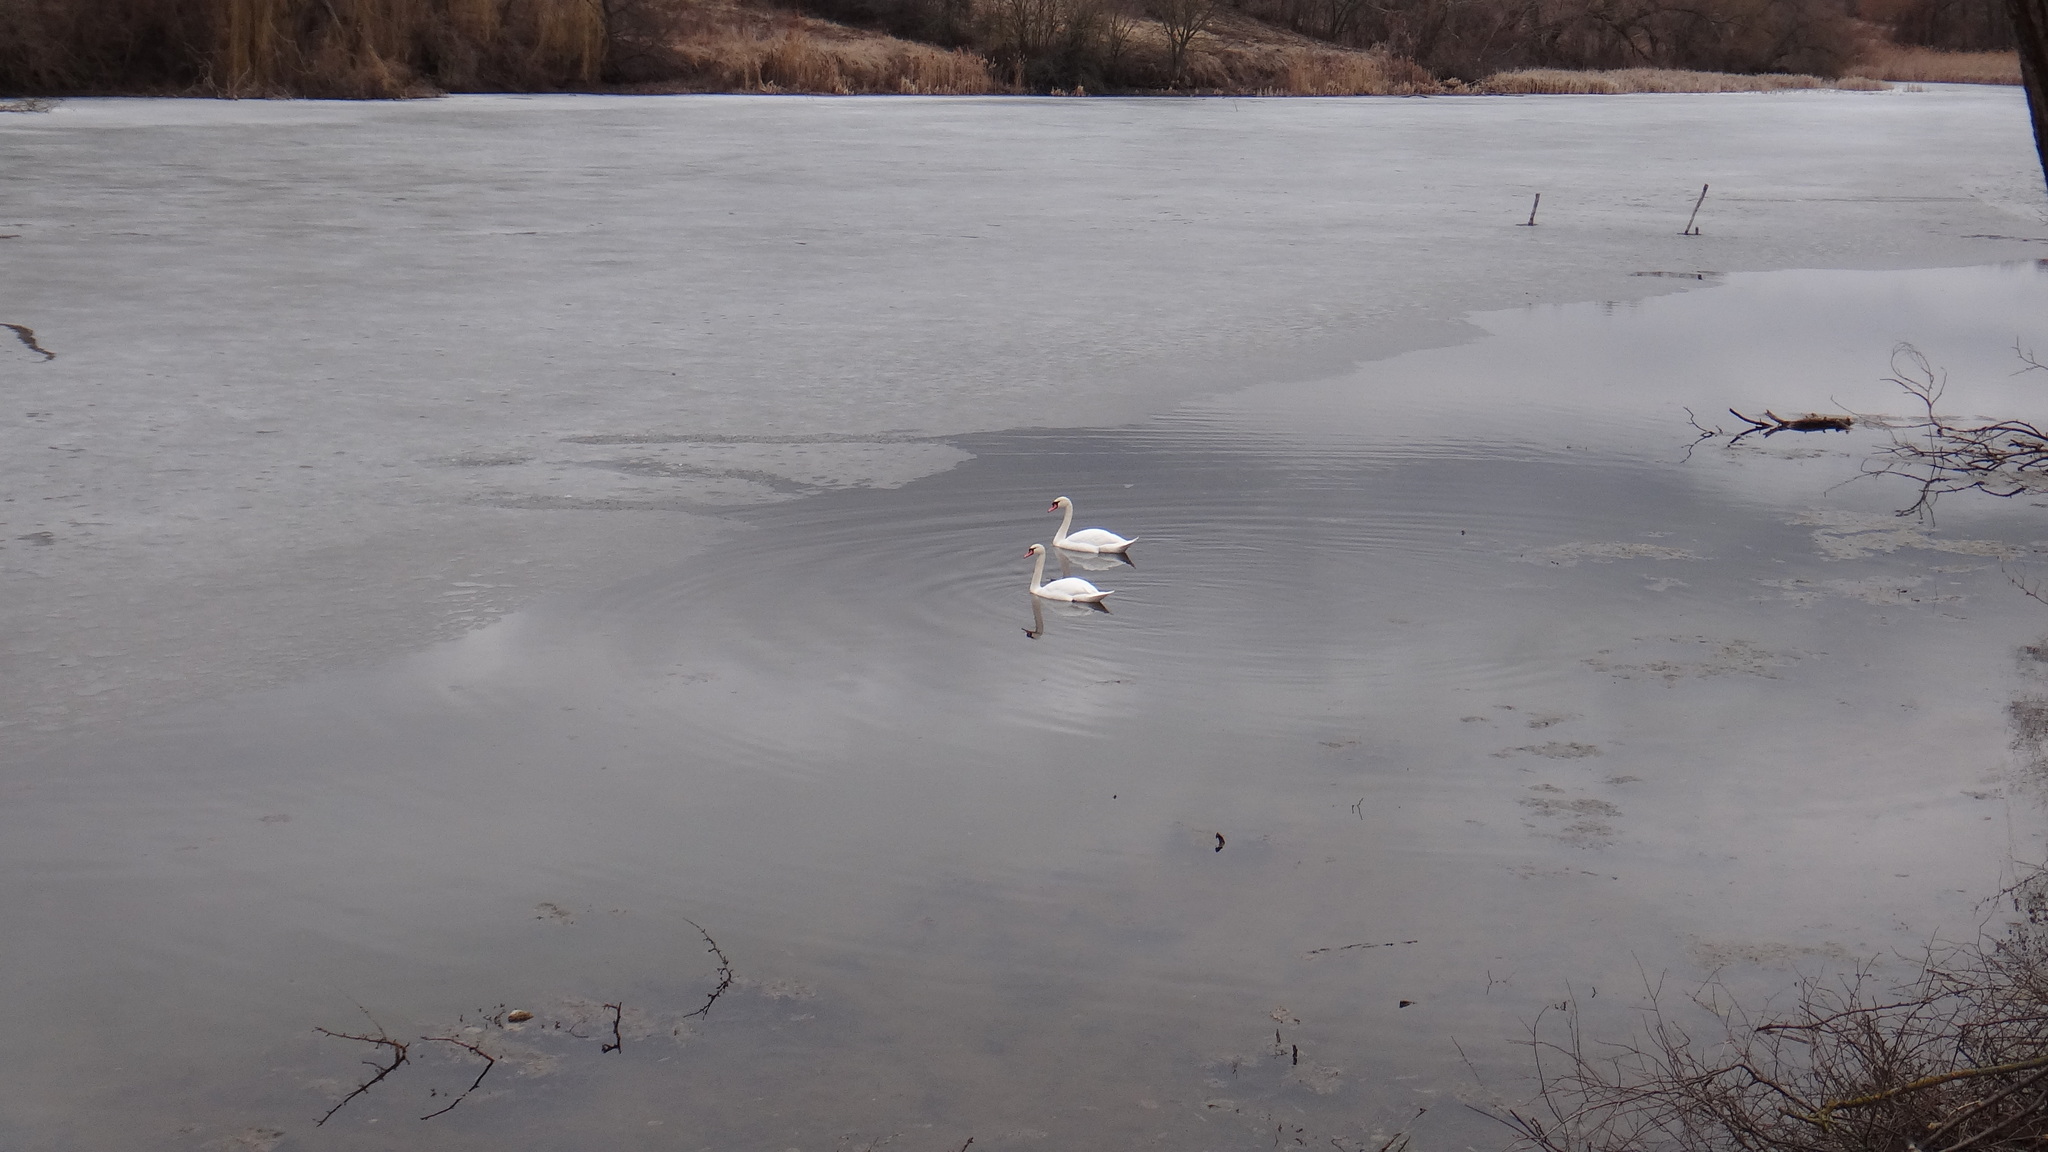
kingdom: Animalia
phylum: Chordata
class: Aves
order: Anseriformes
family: Anatidae
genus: Cygnus
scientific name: Cygnus olor
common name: Mute swan
